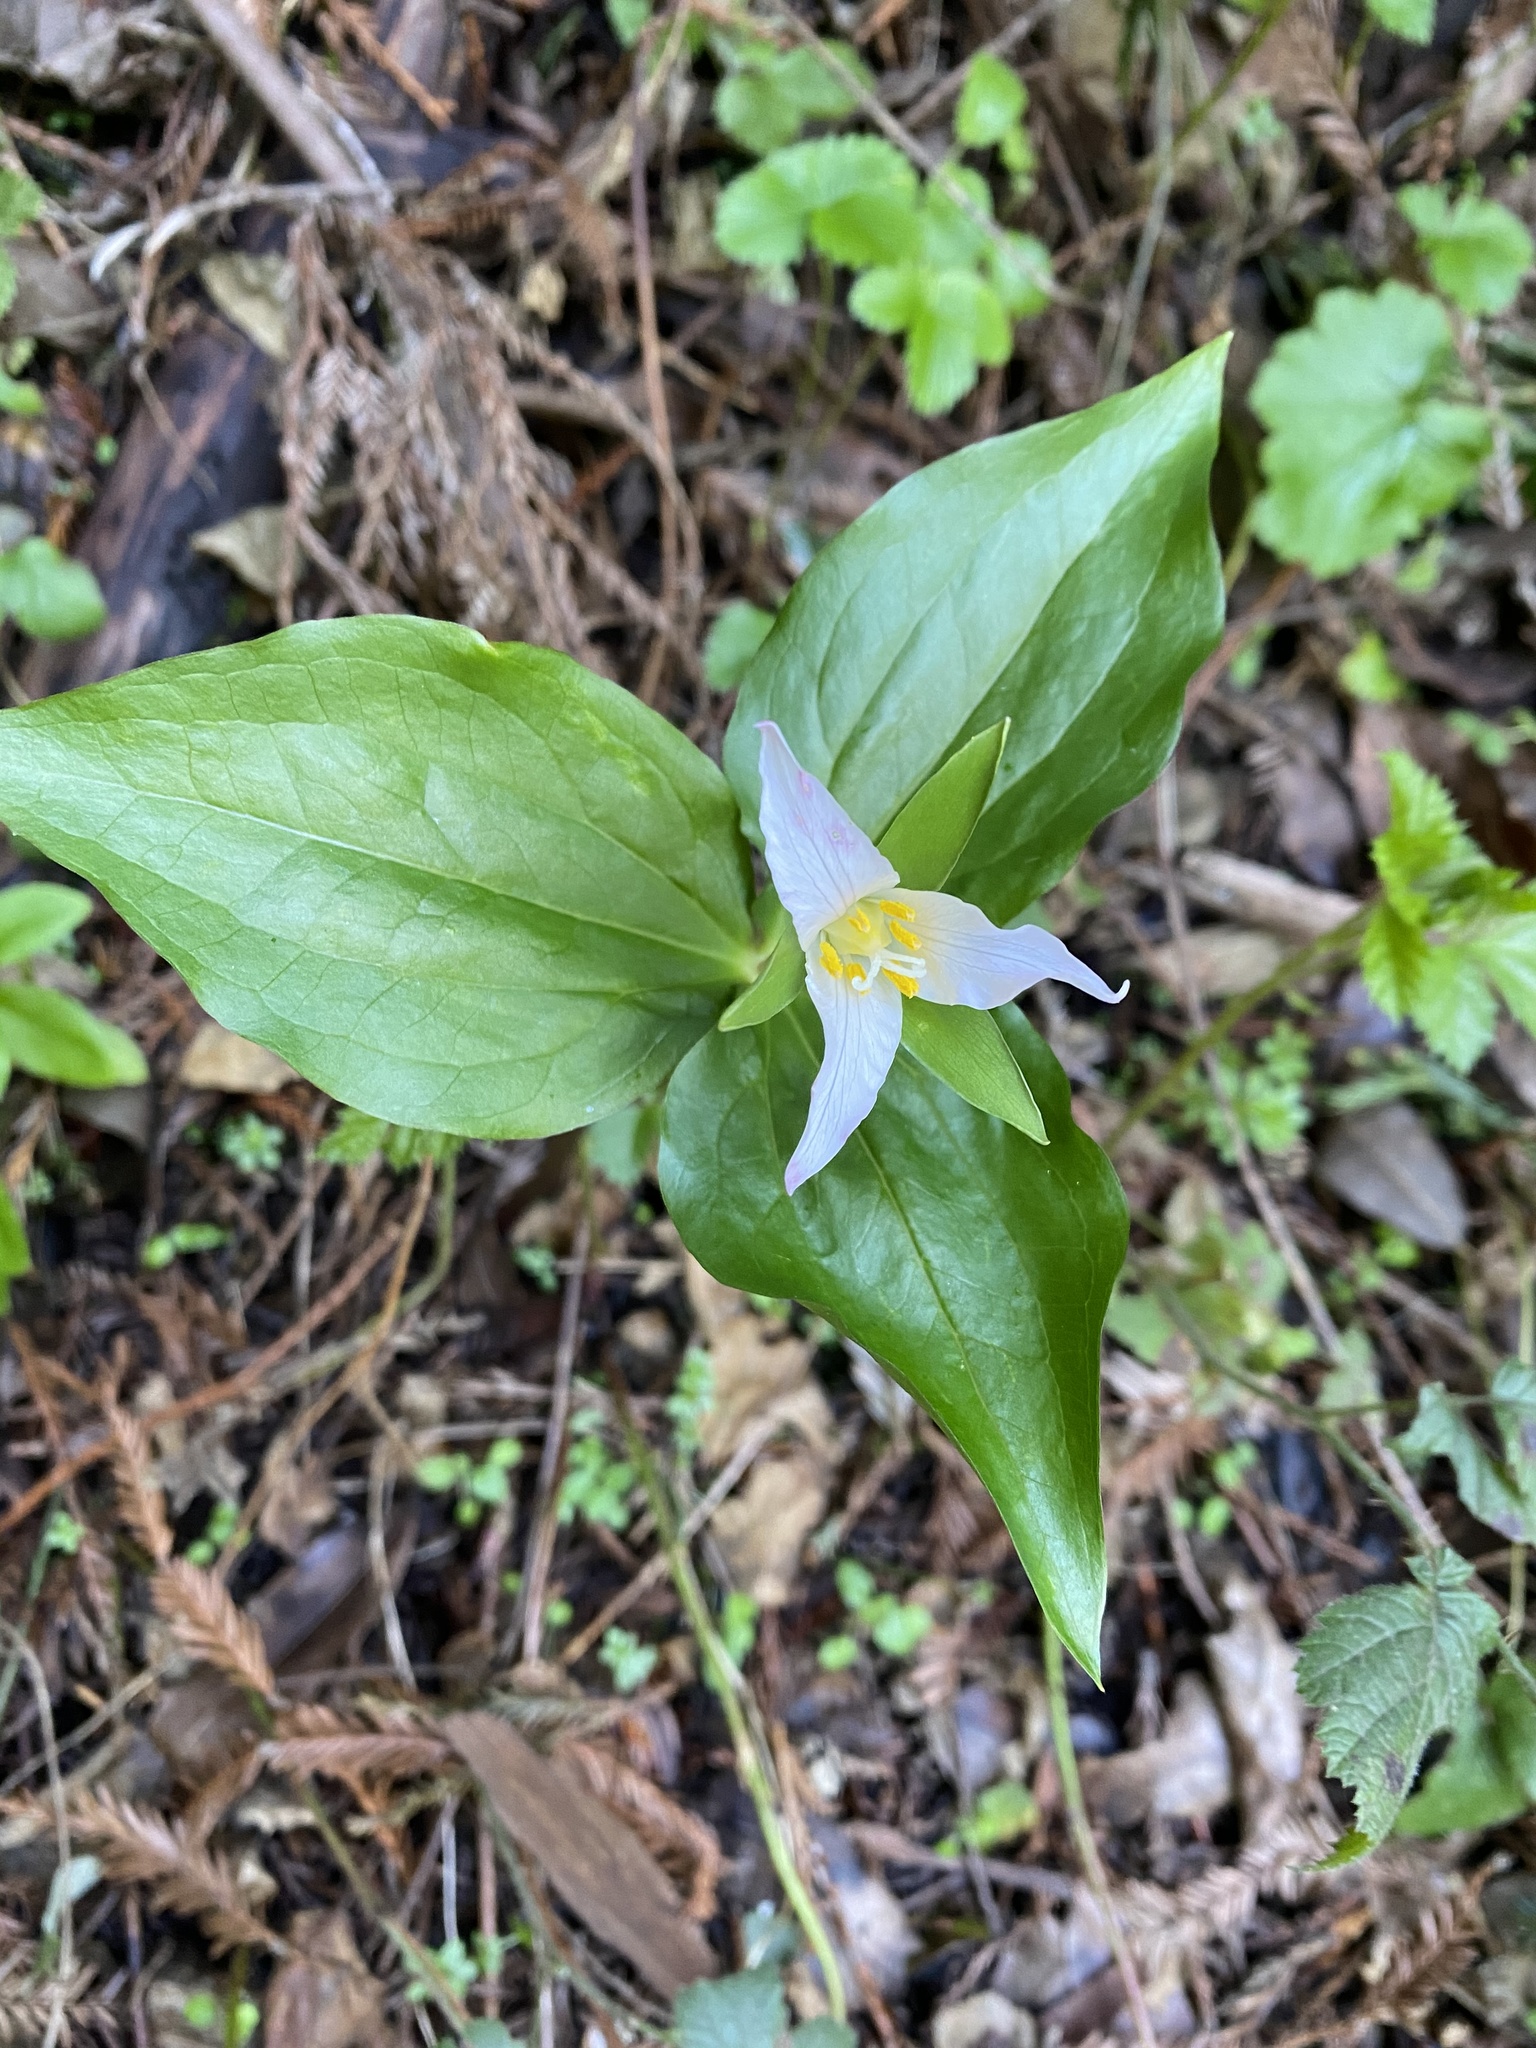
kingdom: Plantae
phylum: Tracheophyta
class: Liliopsida
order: Liliales
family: Melanthiaceae
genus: Trillium
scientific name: Trillium ovatum
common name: Pacific trillium
